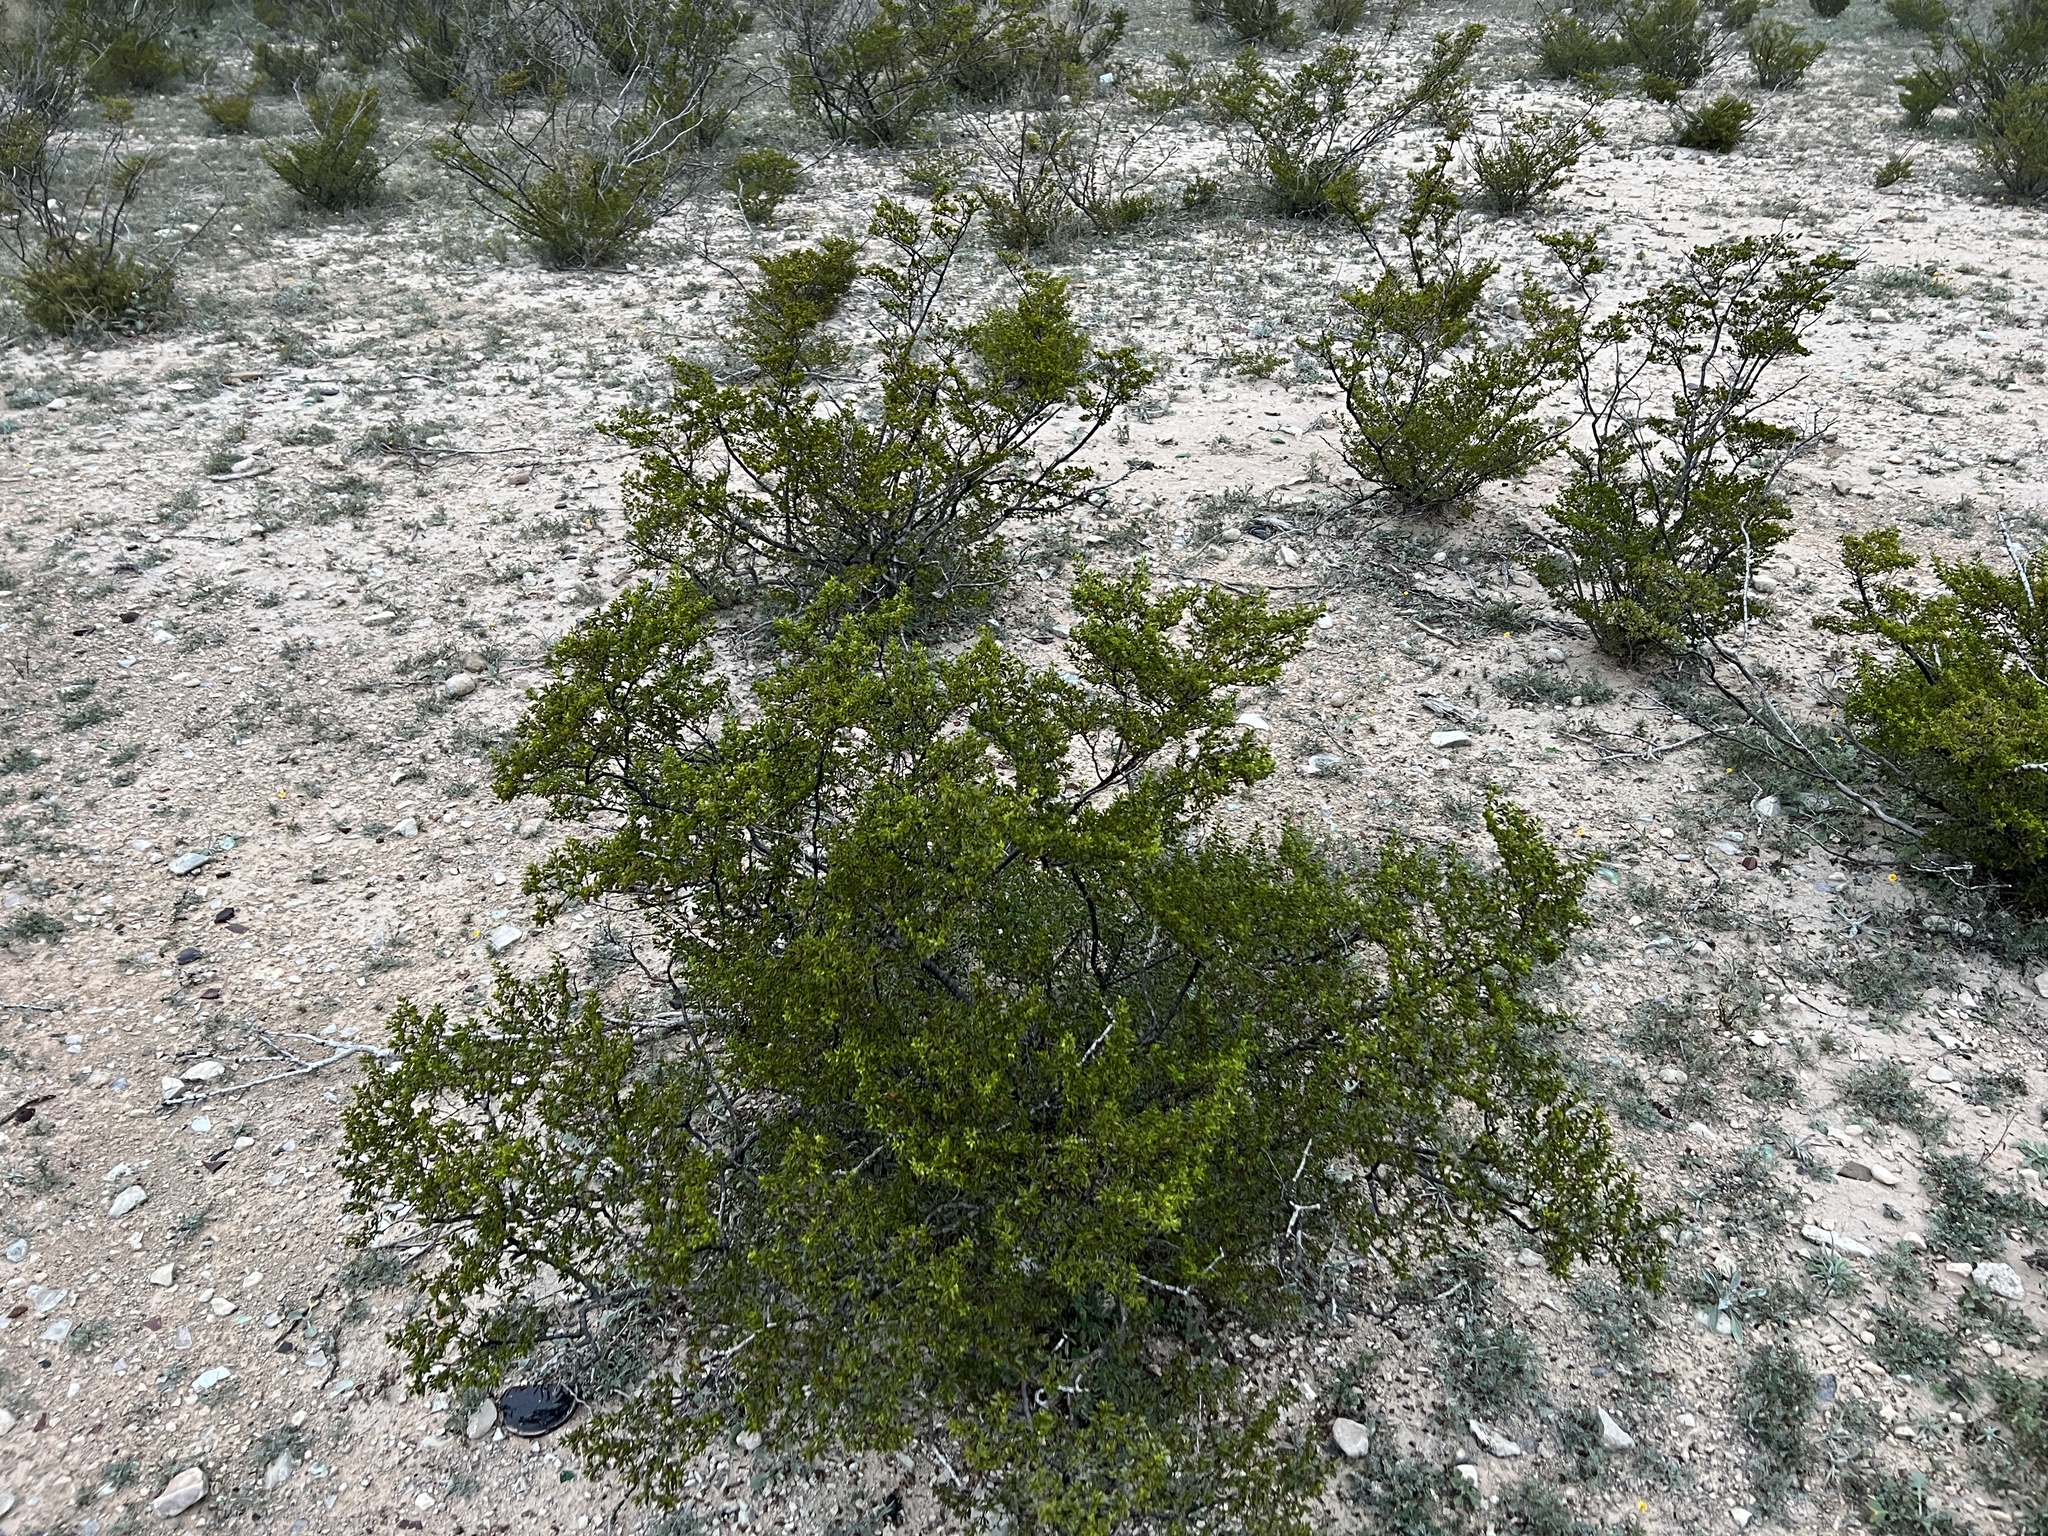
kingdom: Plantae
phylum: Tracheophyta
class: Magnoliopsida
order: Zygophyllales
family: Zygophyllaceae
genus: Larrea
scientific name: Larrea tridentata
